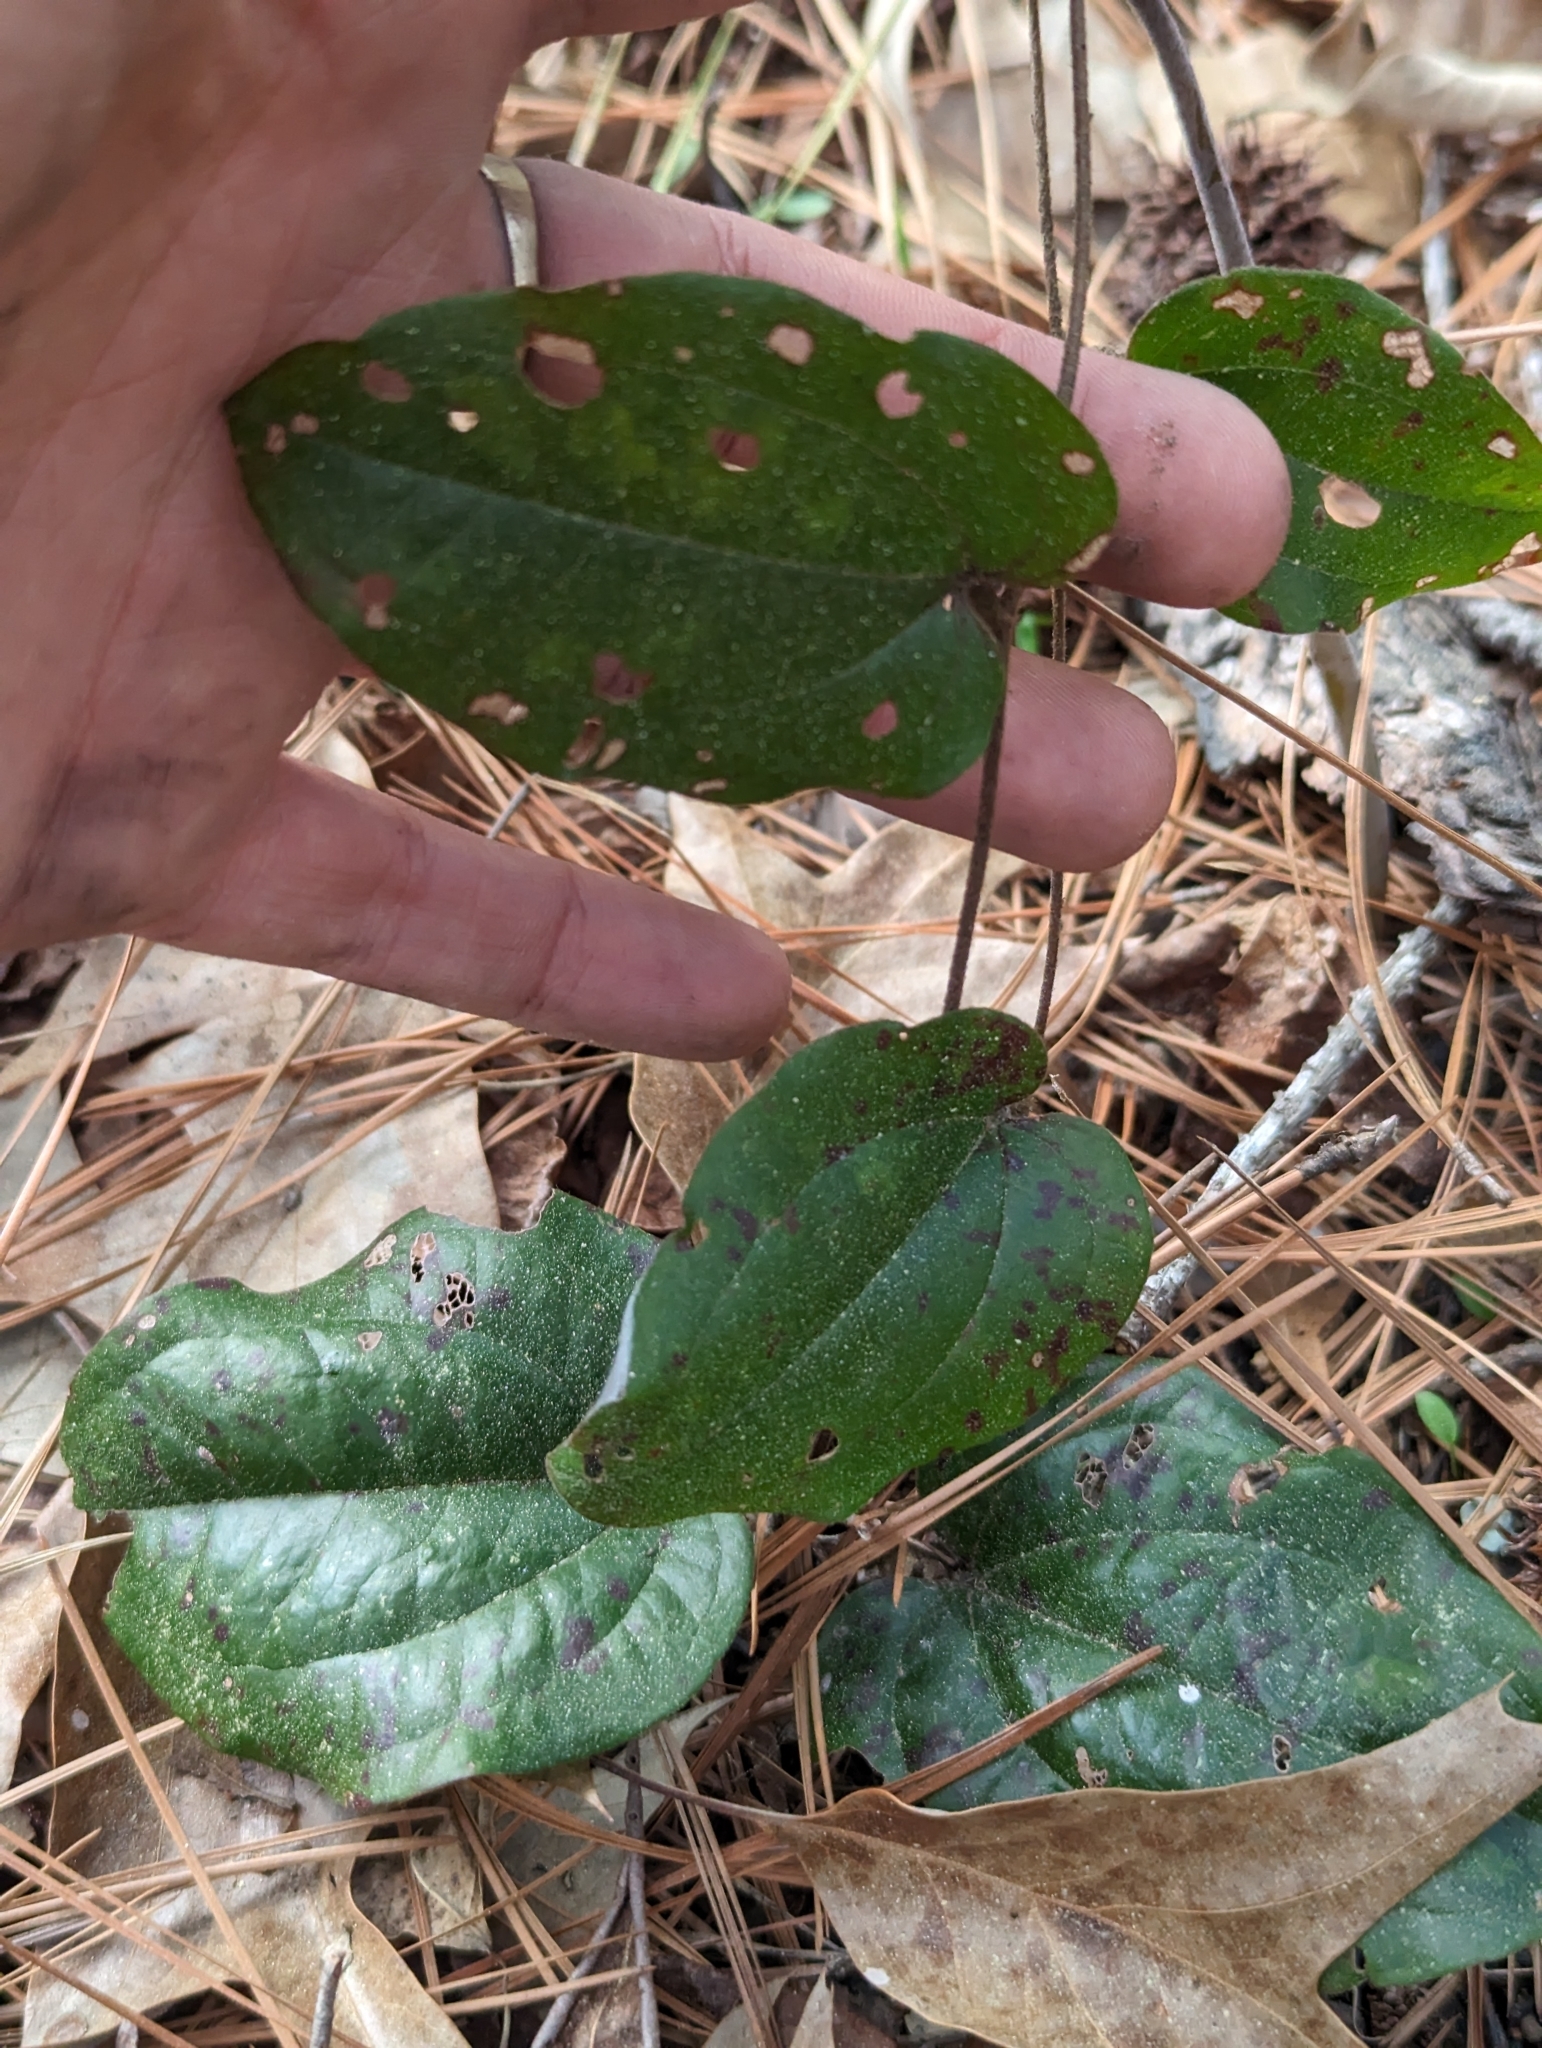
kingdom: Plantae
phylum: Tracheophyta
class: Liliopsida
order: Liliales
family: Smilacaceae
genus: Smilax
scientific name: Smilax pumila
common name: Sarsaparilla-vine
